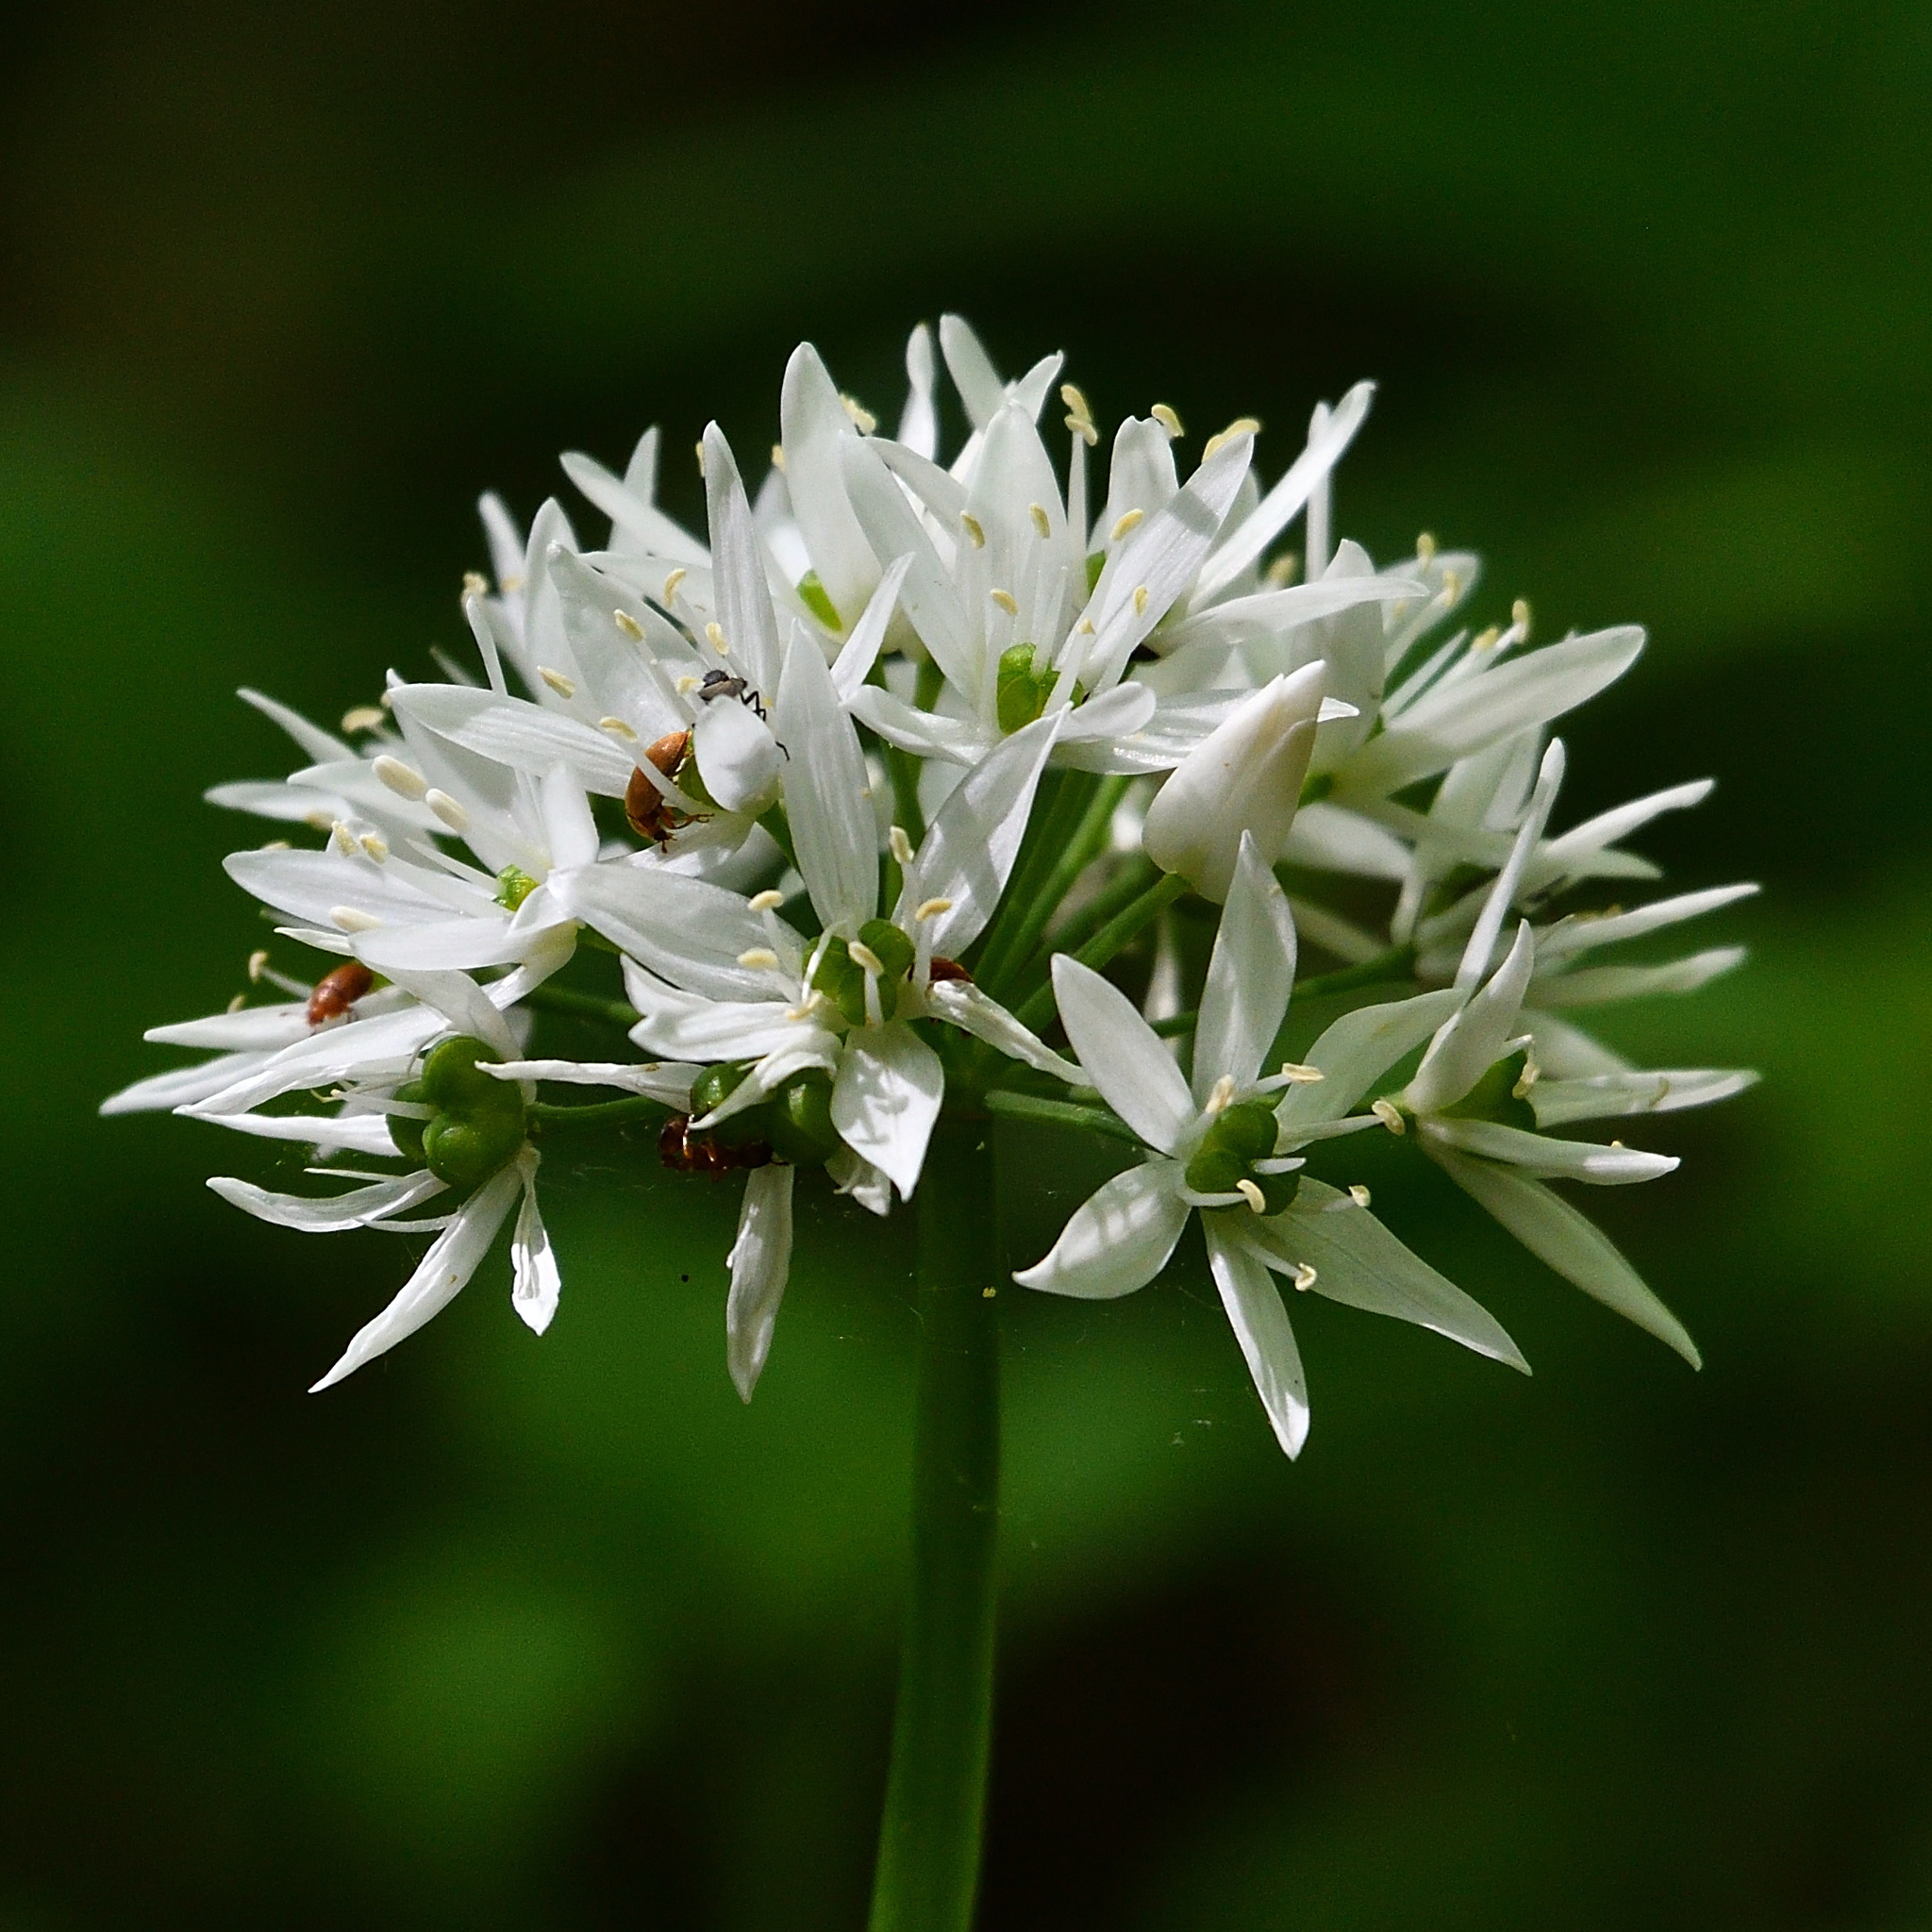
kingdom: Plantae
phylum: Tracheophyta
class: Liliopsida
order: Asparagales
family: Amaryllidaceae
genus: Allium
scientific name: Allium ursinum
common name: Ramsons
